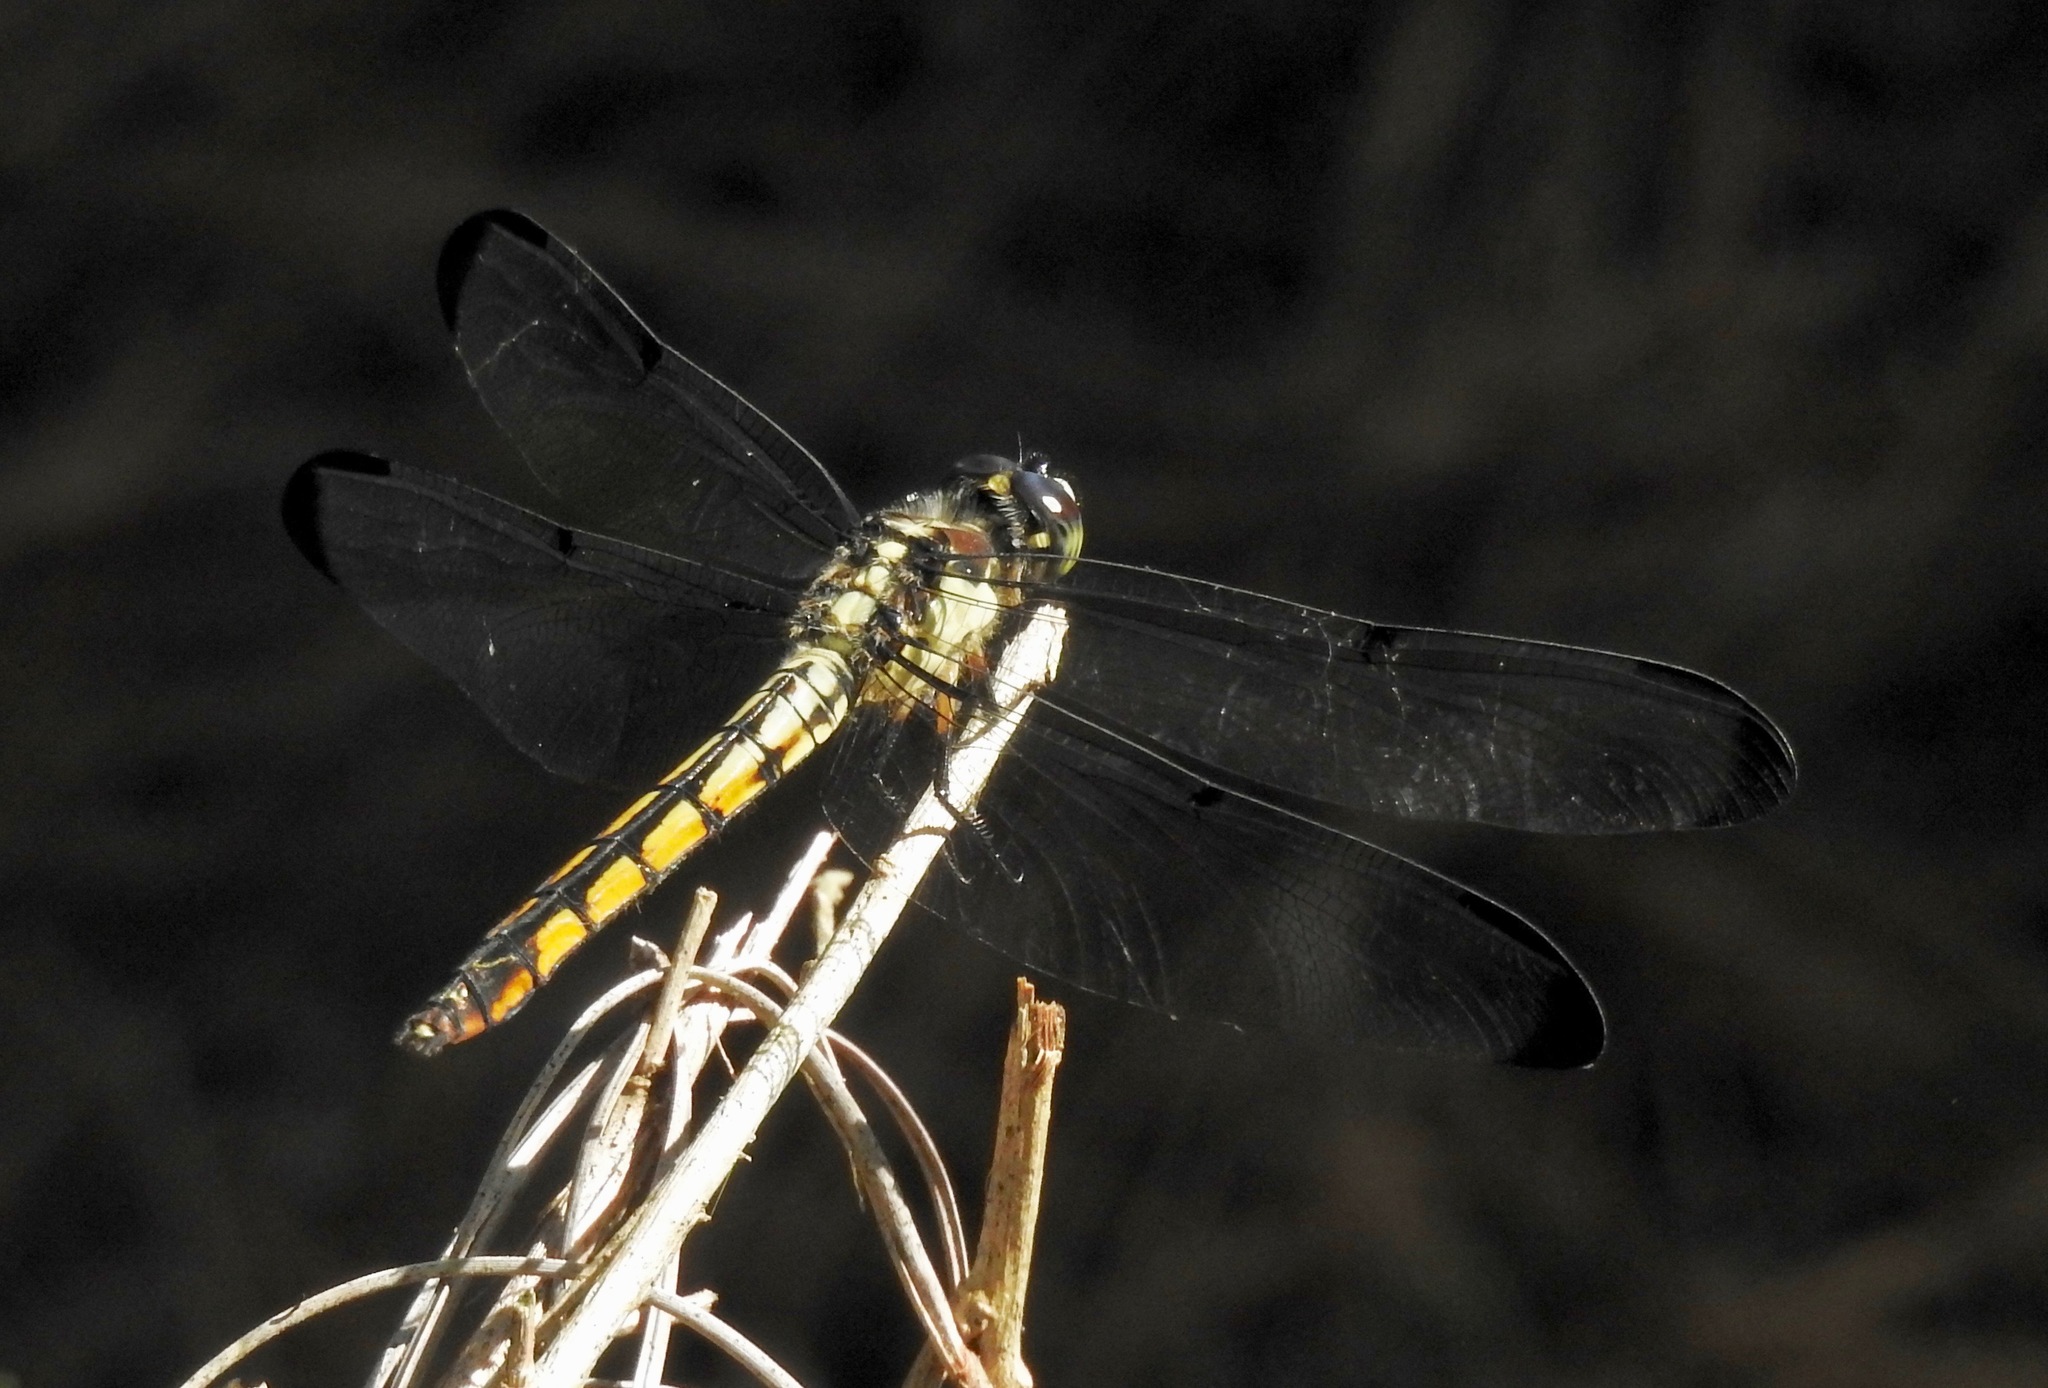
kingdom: Animalia
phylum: Arthropoda
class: Insecta
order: Odonata
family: Libellulidae
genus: Libellula
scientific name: Libellula vibrans
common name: Great blue skimmer
